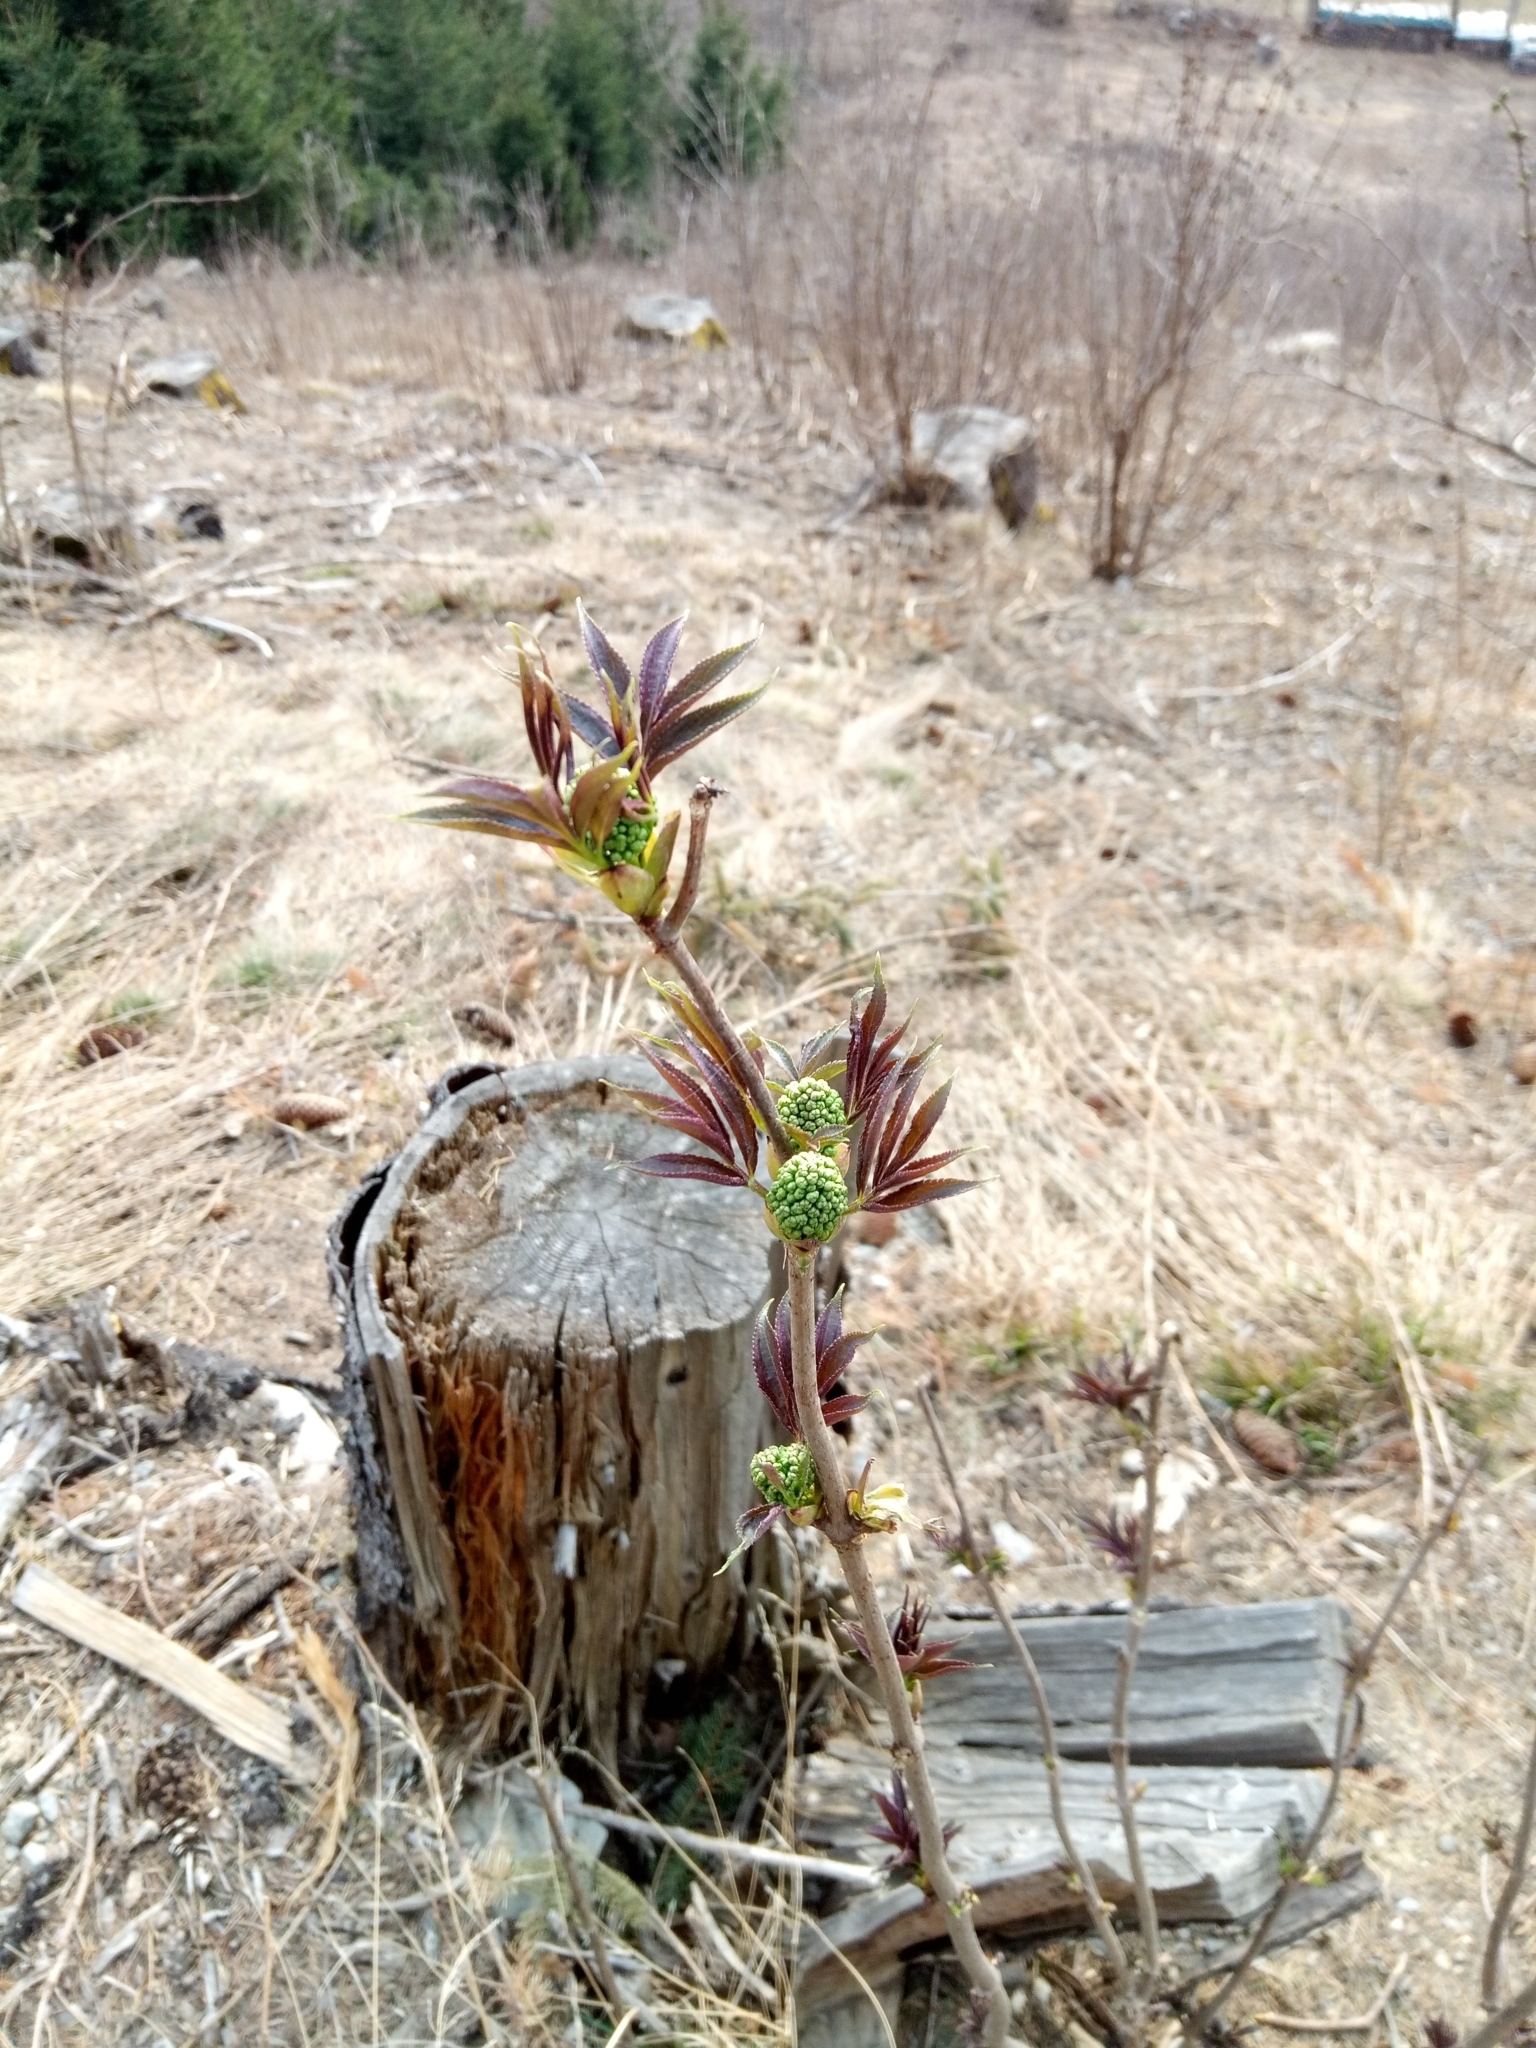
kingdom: Plantae
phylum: Tracheophyta
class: Magnoliopsida
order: Dipsacales
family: Viburnaceae
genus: Sambucus
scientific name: Sambucus racemosa
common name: Red-berried elder
